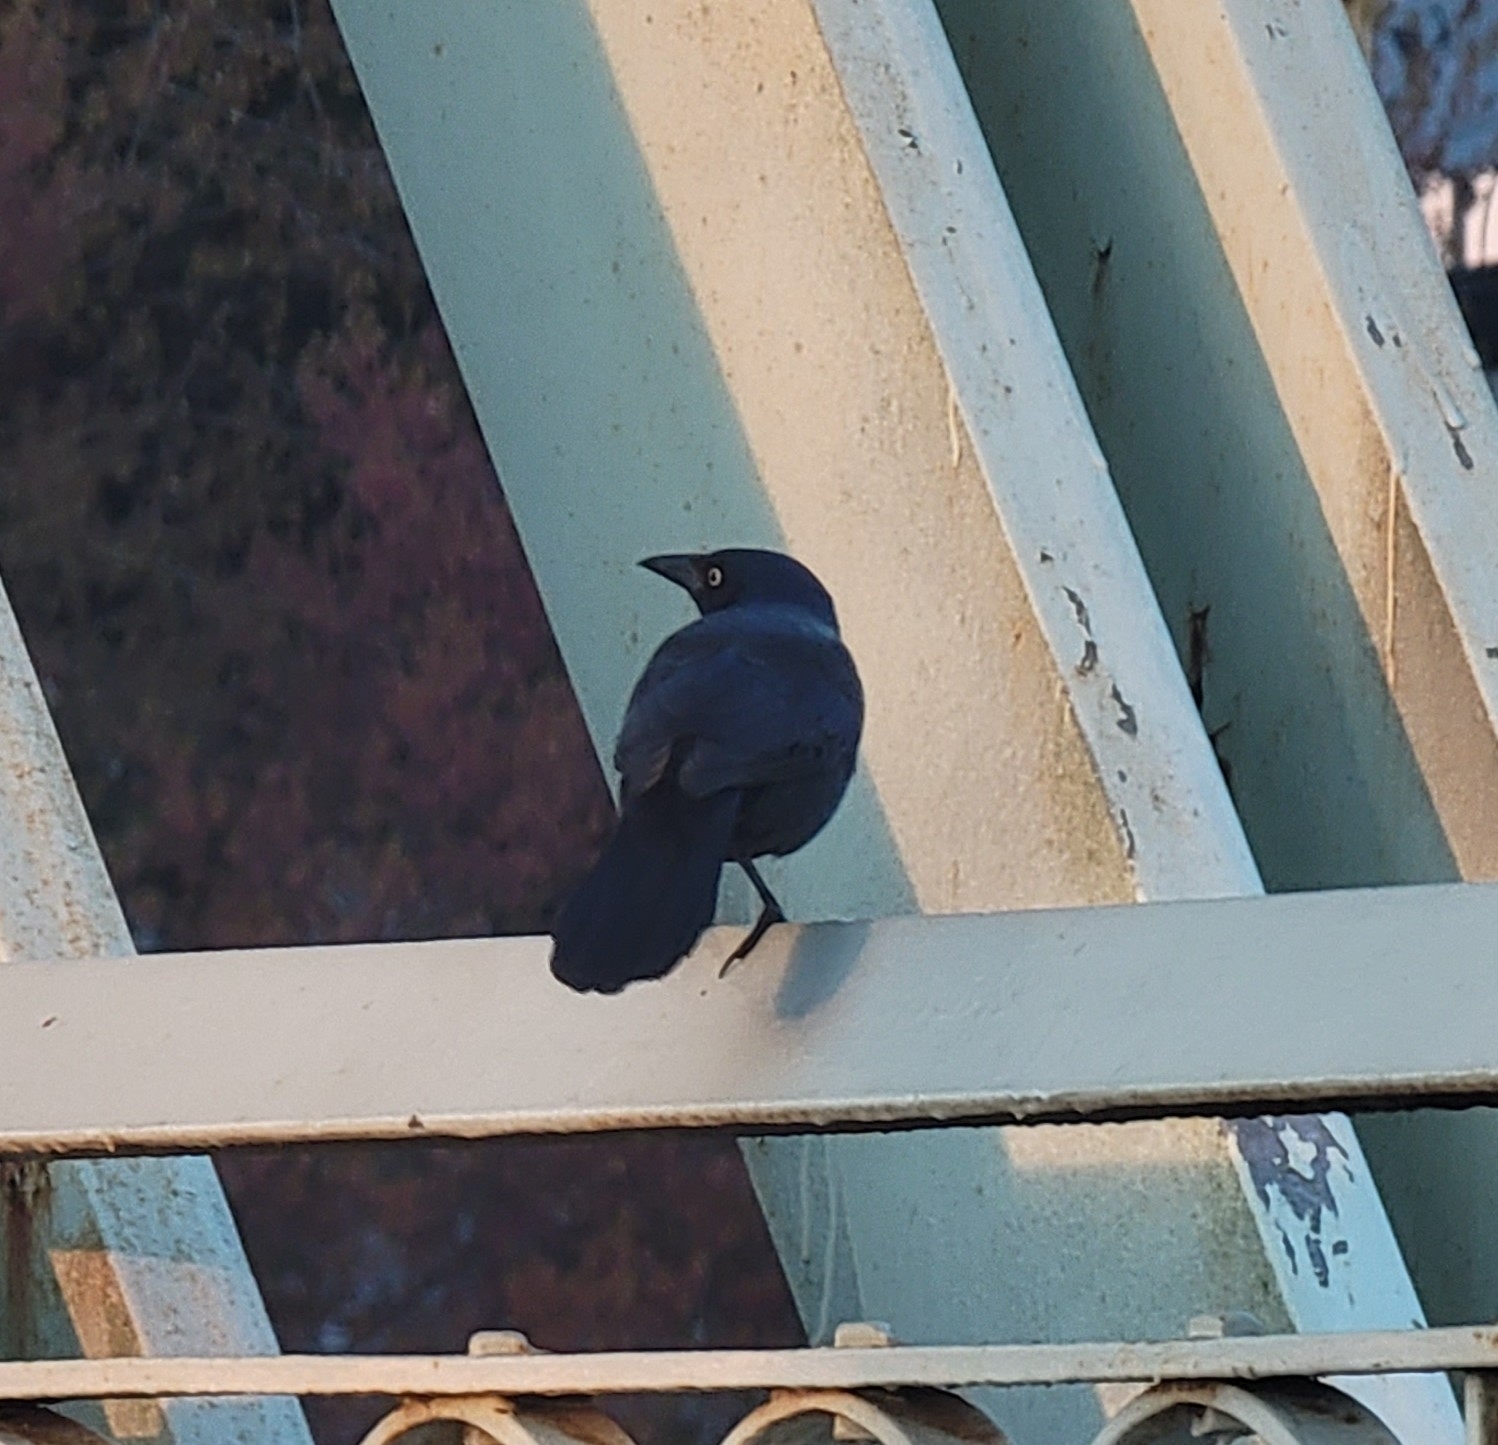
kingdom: Animalia
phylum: Chordata
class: Aves
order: Passeriformes
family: Icteridae
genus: Quiscalus
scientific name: Quiscalus quiscula
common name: Common grackle
